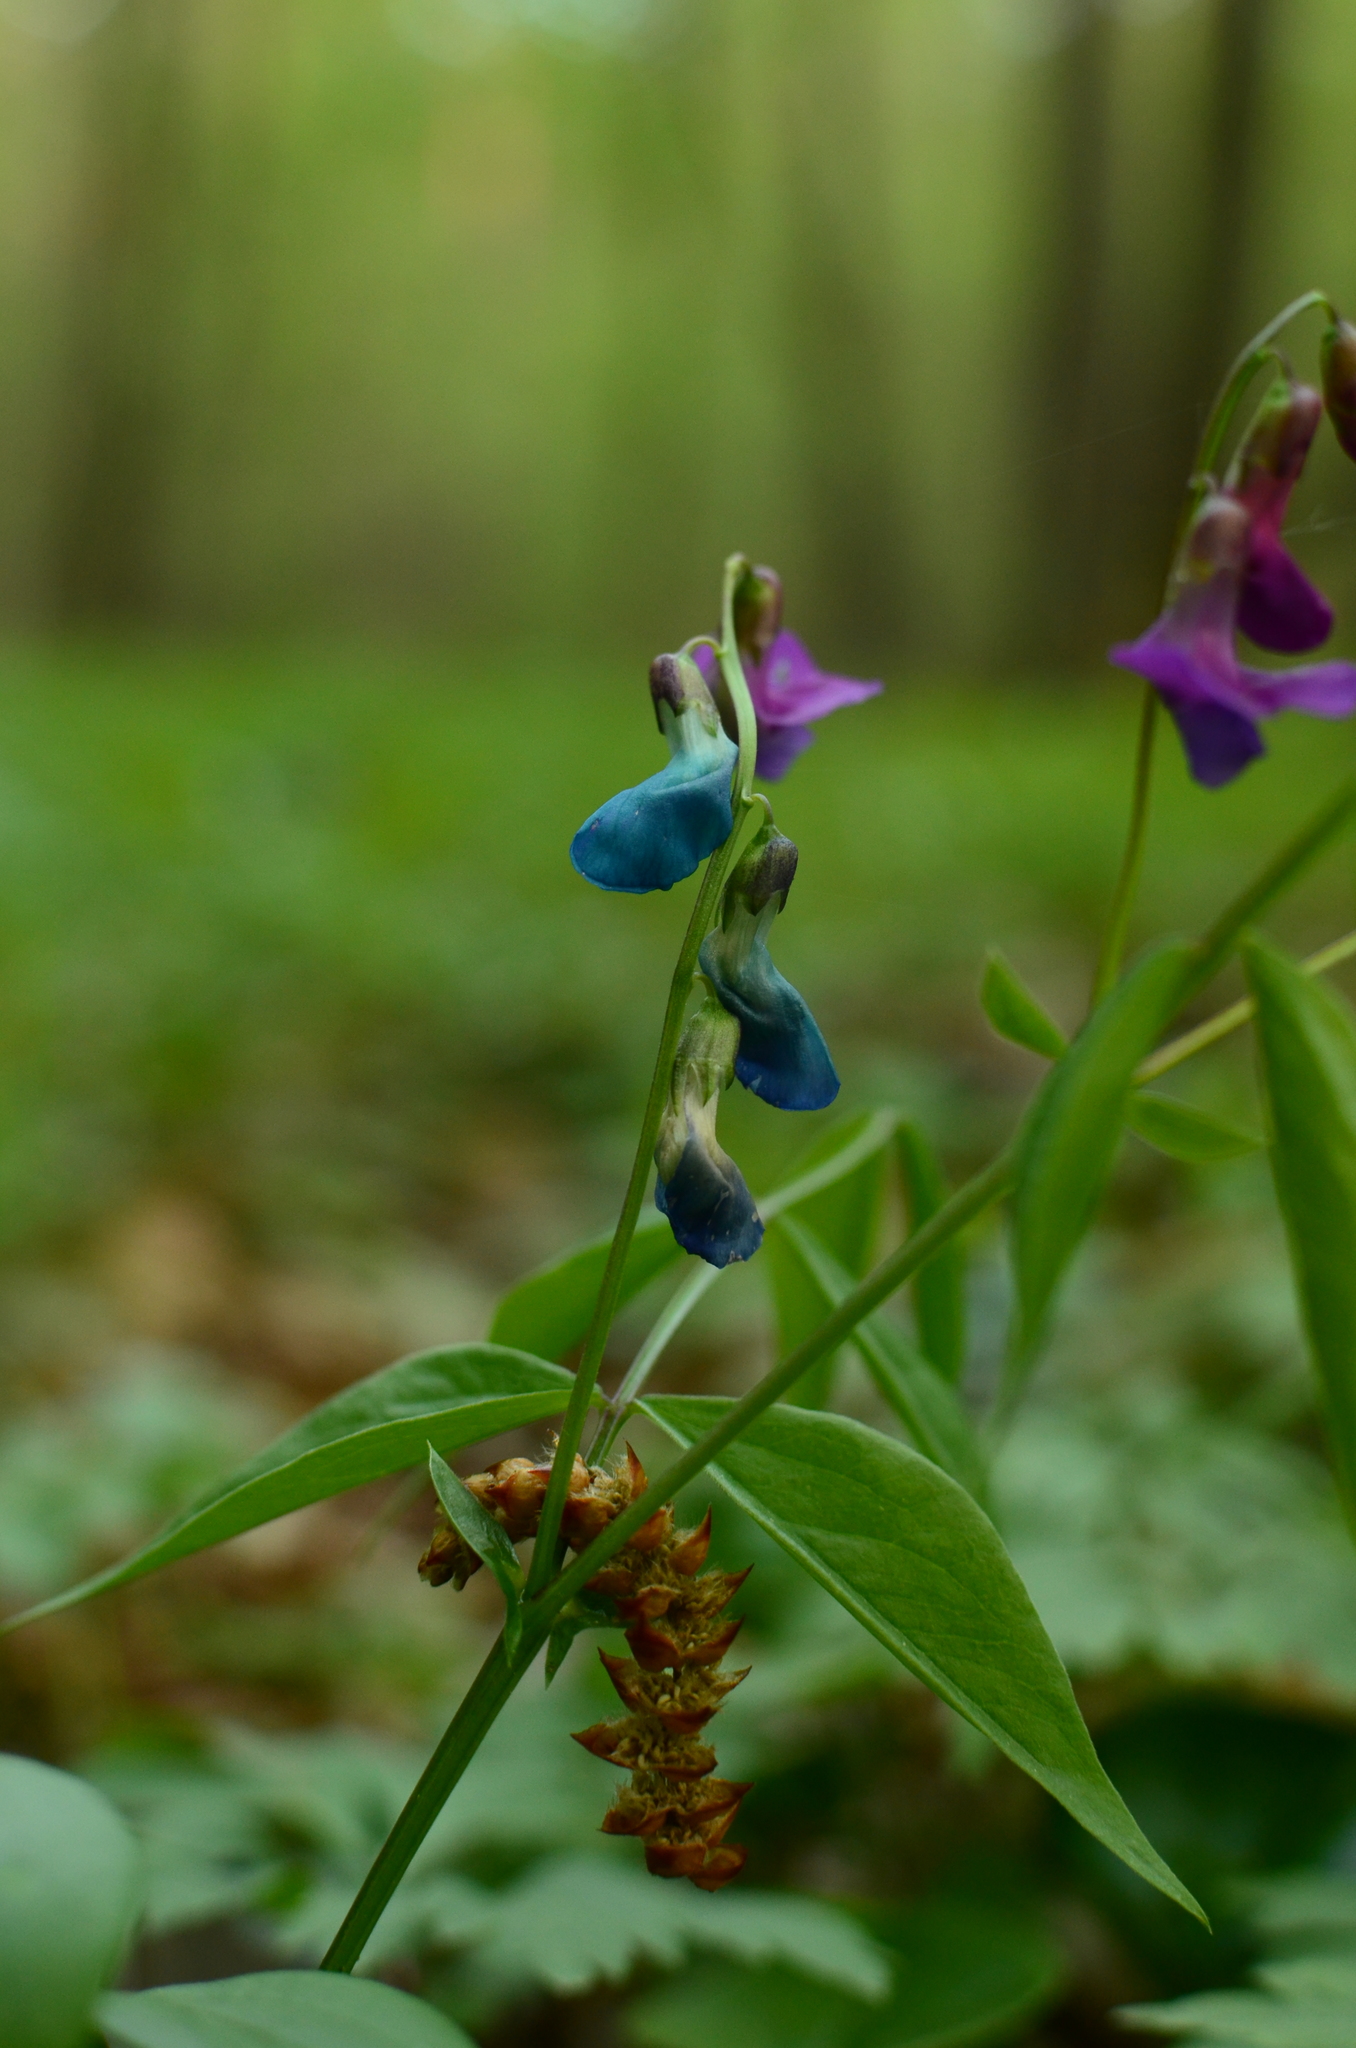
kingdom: Plantae
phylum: Tracheophyta
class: Magnoliopsida
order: Fabales
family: Fabaceae
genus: Lathyrus
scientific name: Lathyrus vernus
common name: Spring pea
